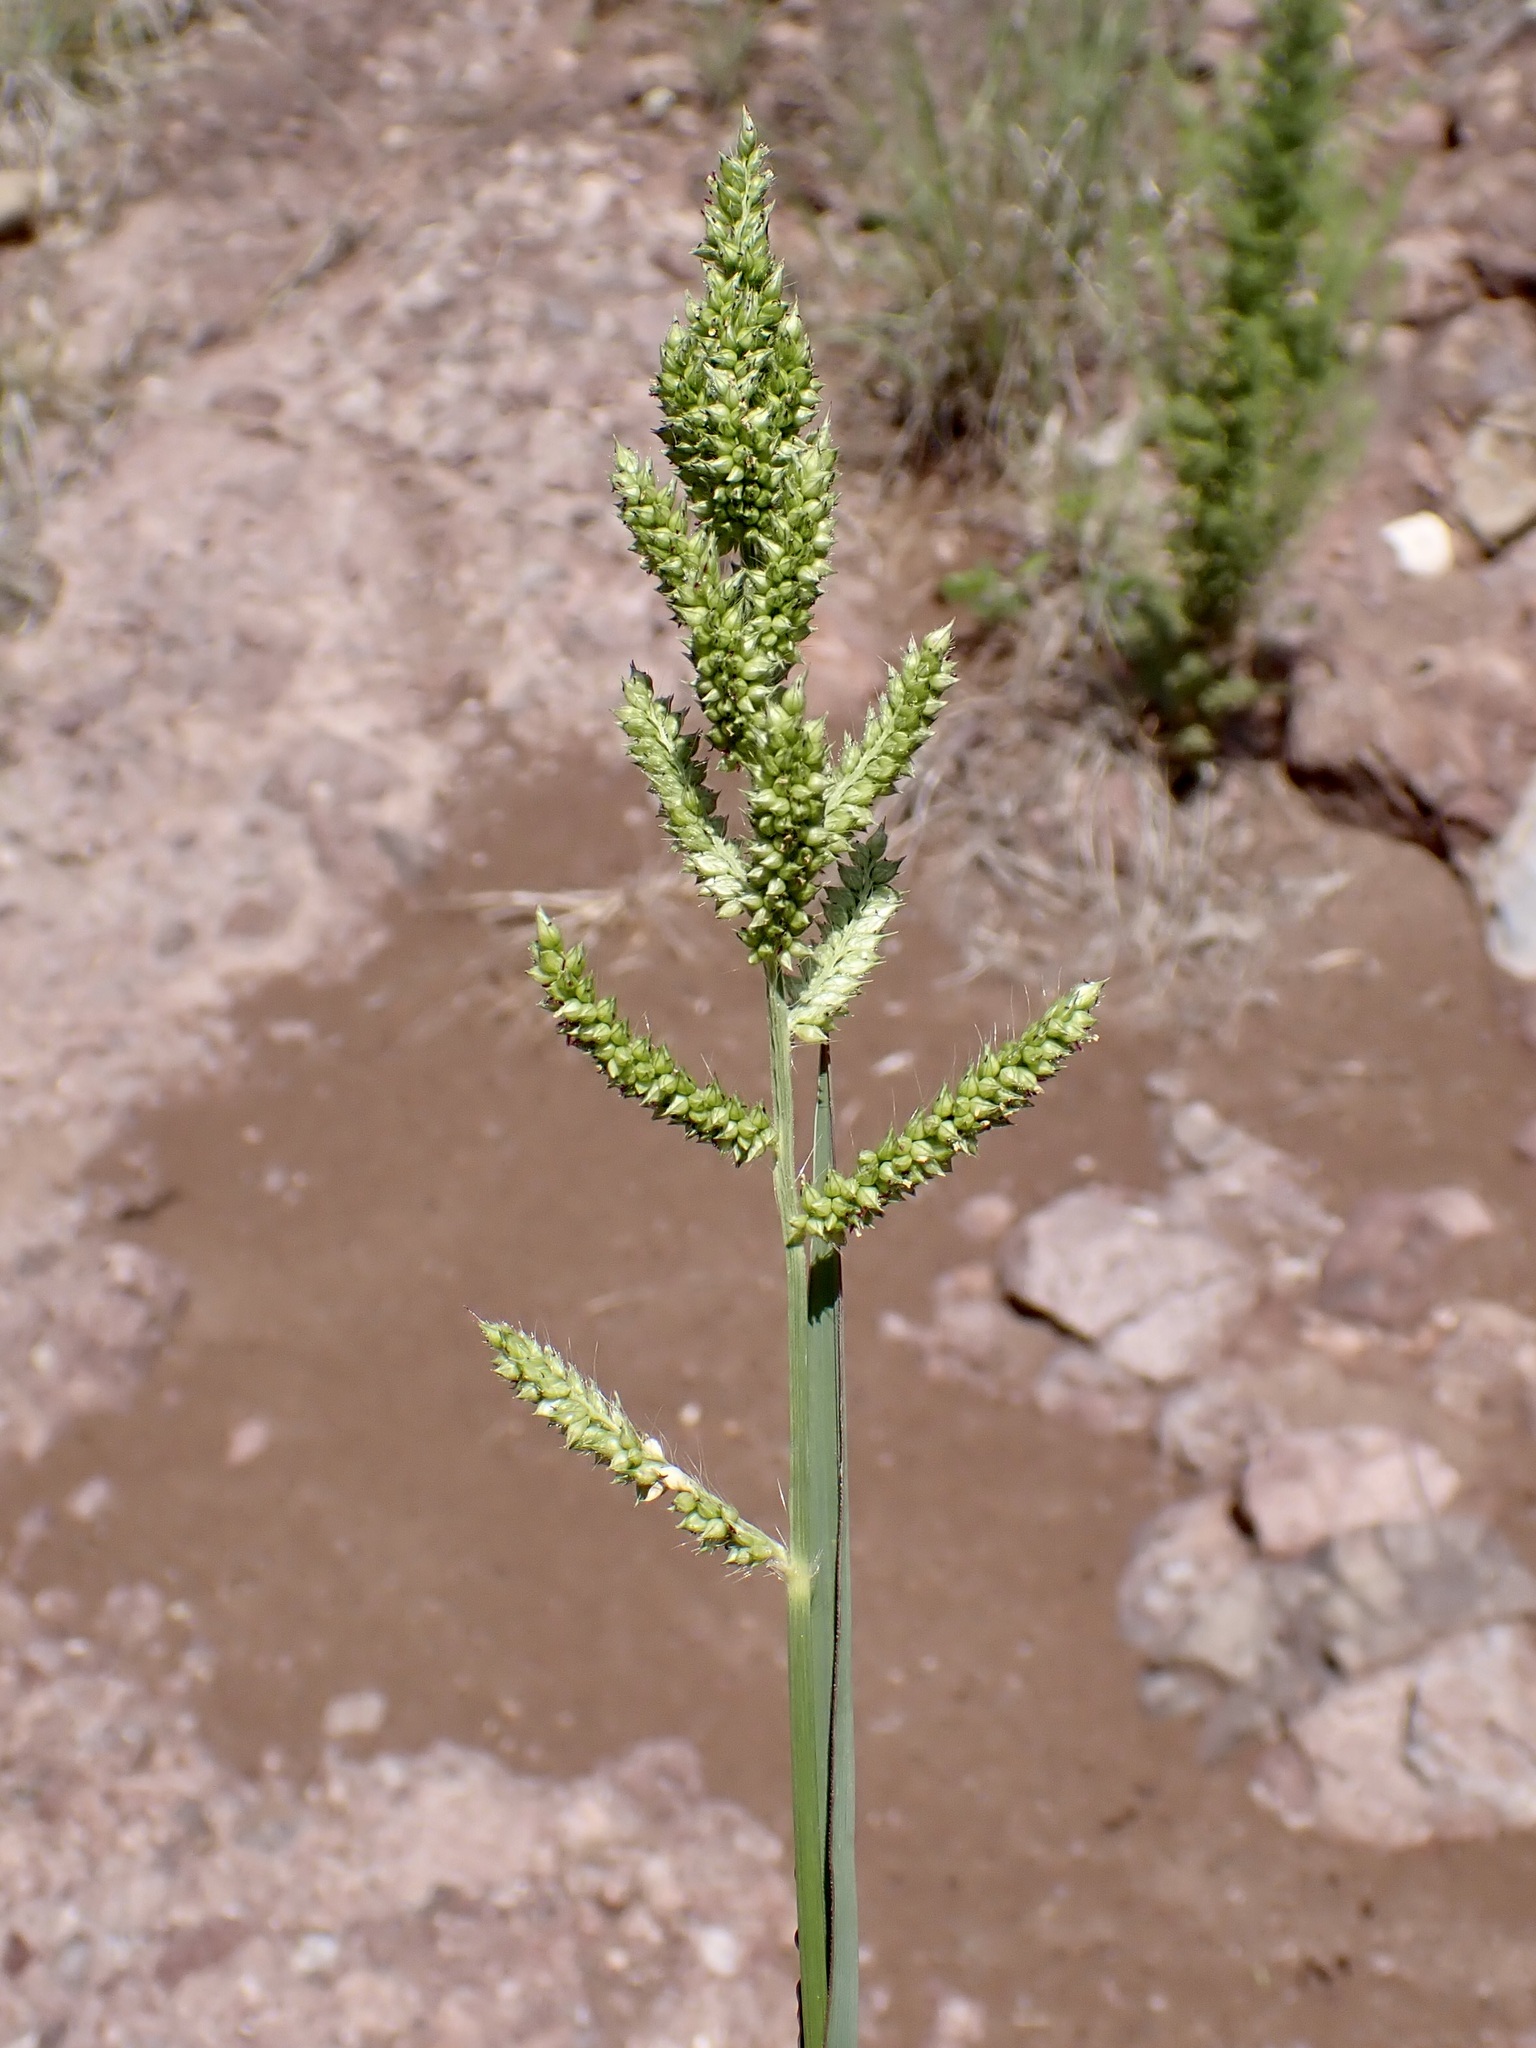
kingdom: Plantae
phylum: Tracheophyta
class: Liliopsida
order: Poales
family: Poaceae
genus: Echinochloa
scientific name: Echinochloa crus-galli
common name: Cockspur
